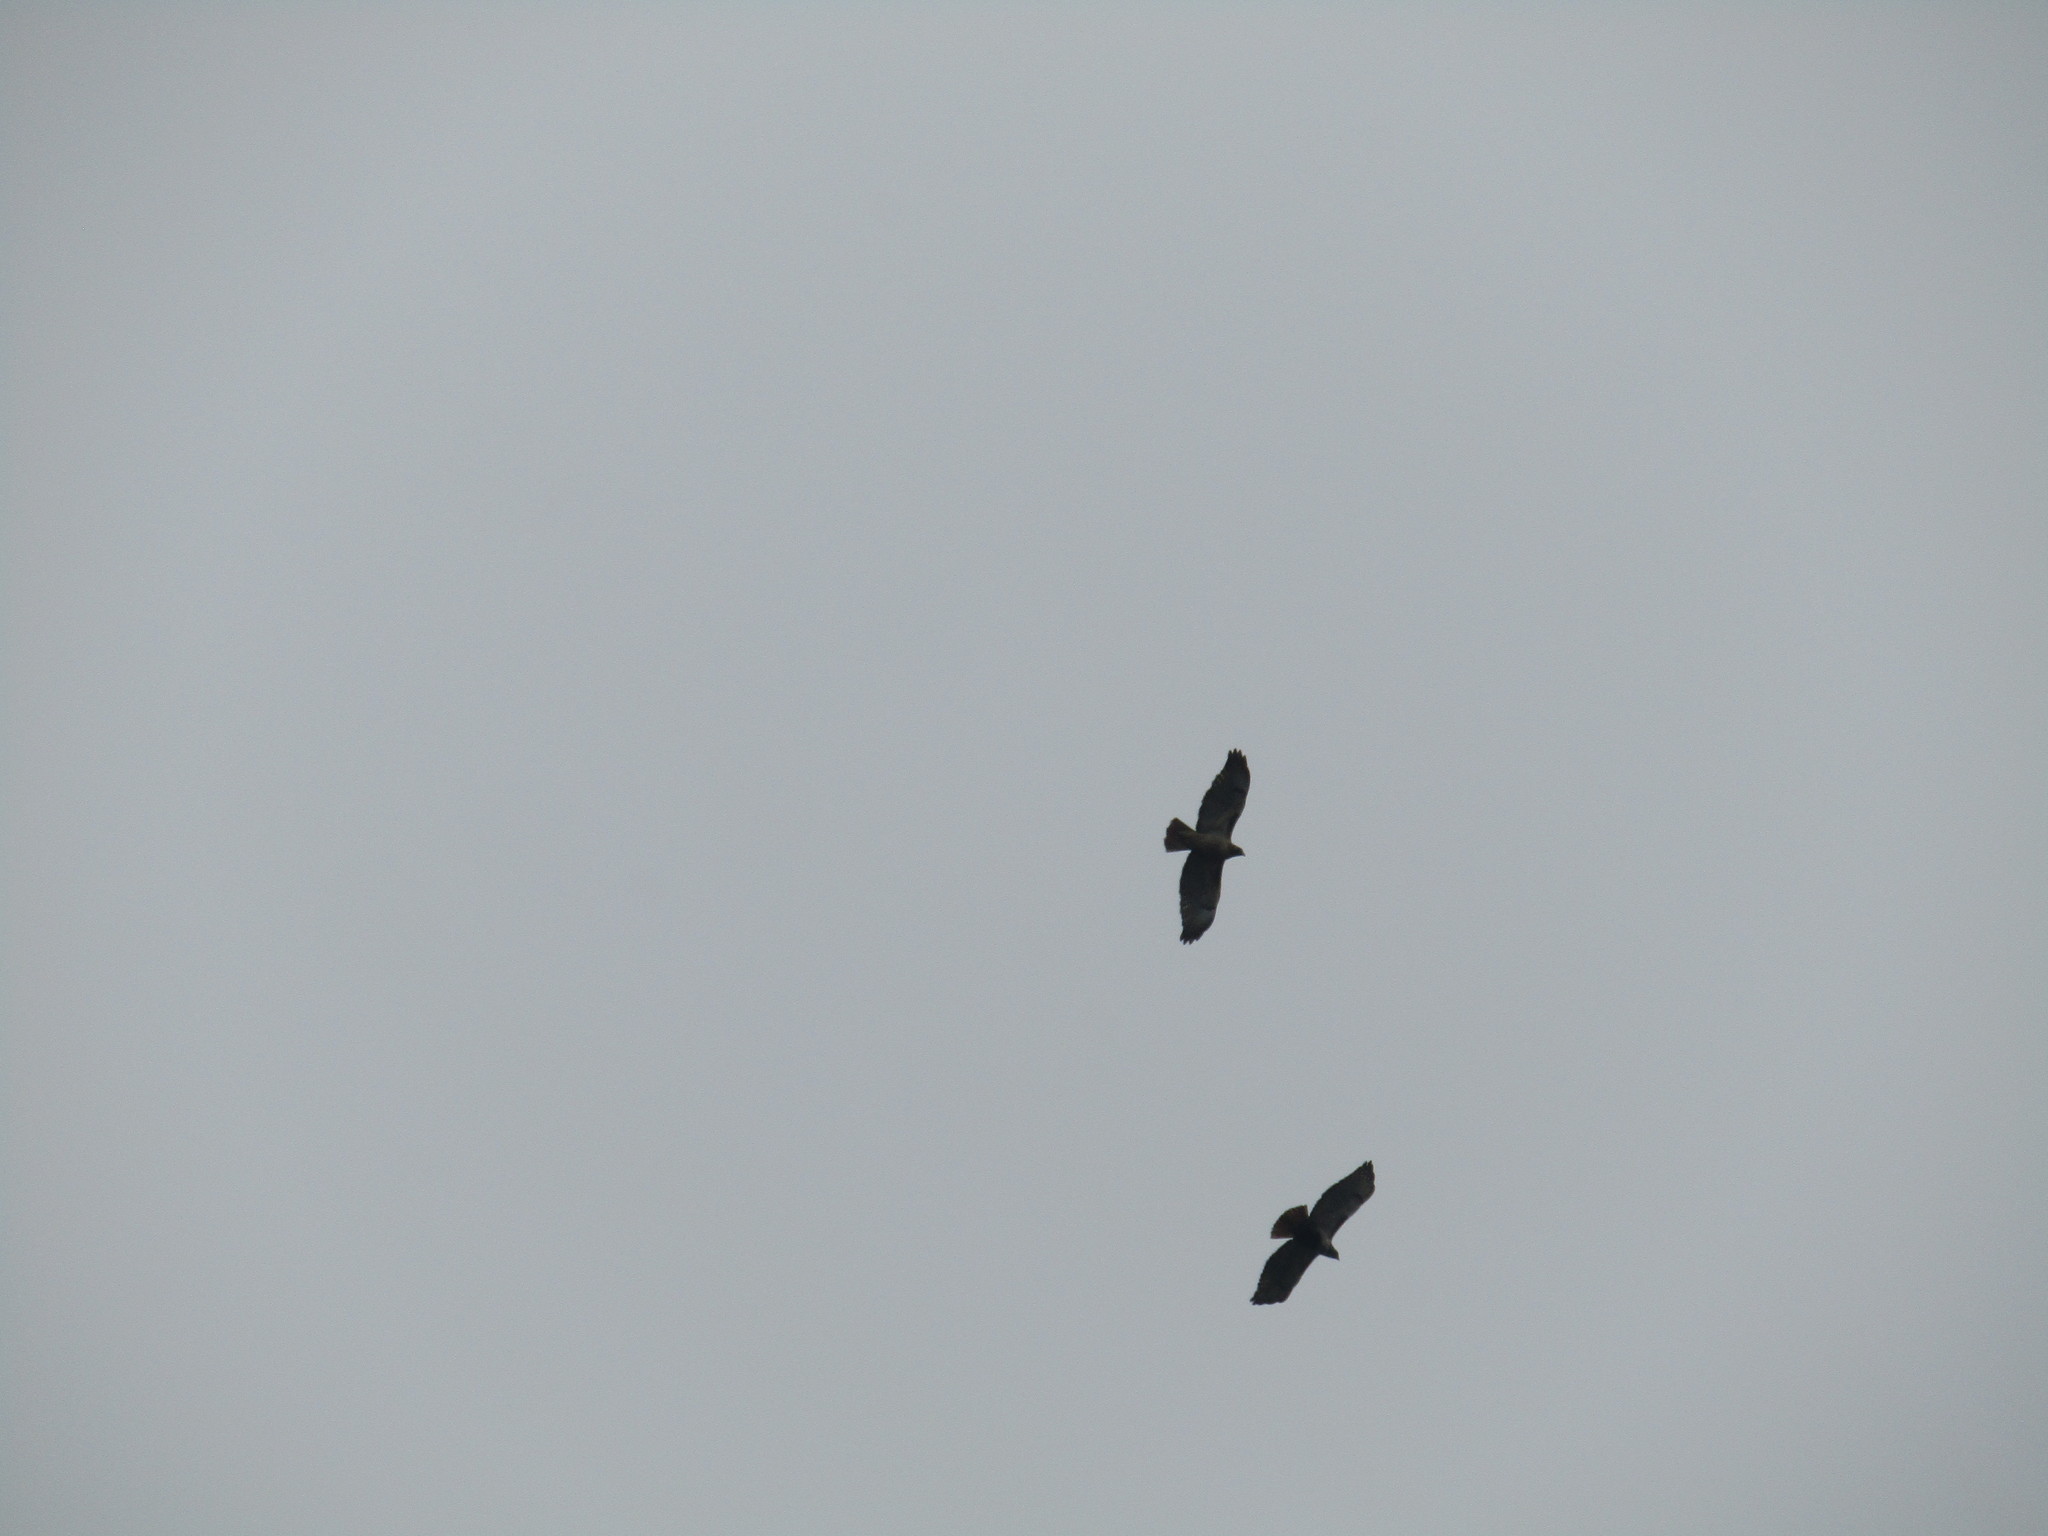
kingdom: Animalia
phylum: Chordata
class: Aves
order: Accipitriformes
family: Accipitridae
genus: Buteo
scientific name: Buteo jamaicensis
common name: Red-tailed hawk
